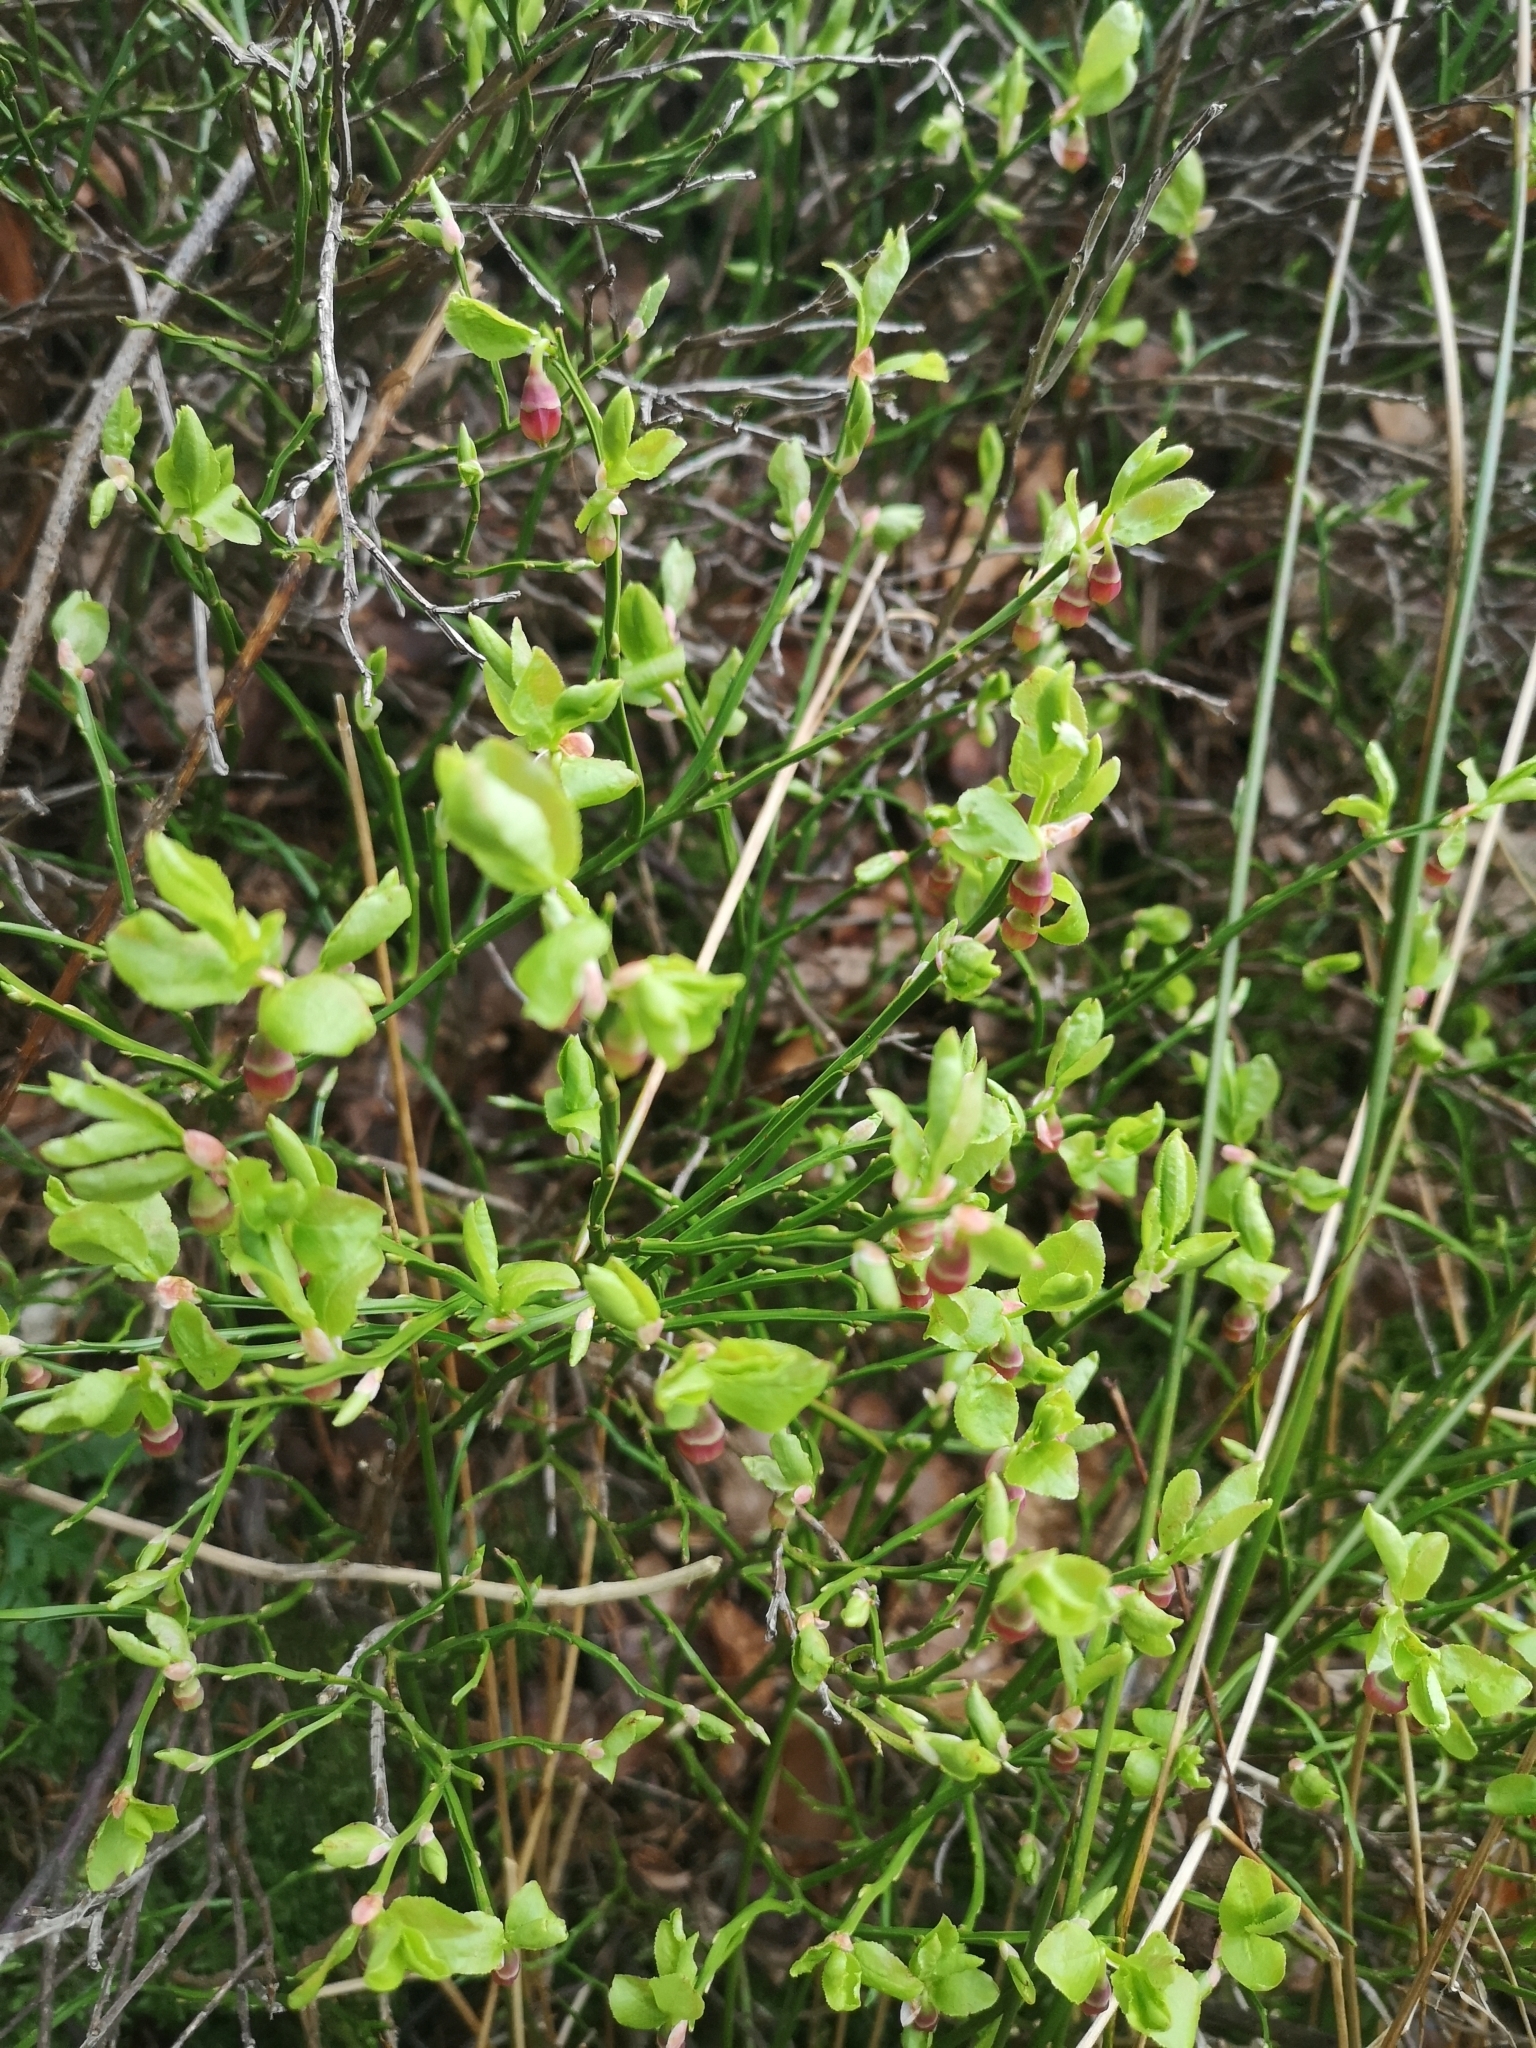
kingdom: Plantae
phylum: Tracheophyta
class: Magnoliopsida
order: Ericales
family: Ericaceae
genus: Vaccinium
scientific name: Vaccinium myrtillus
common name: Bilberry
